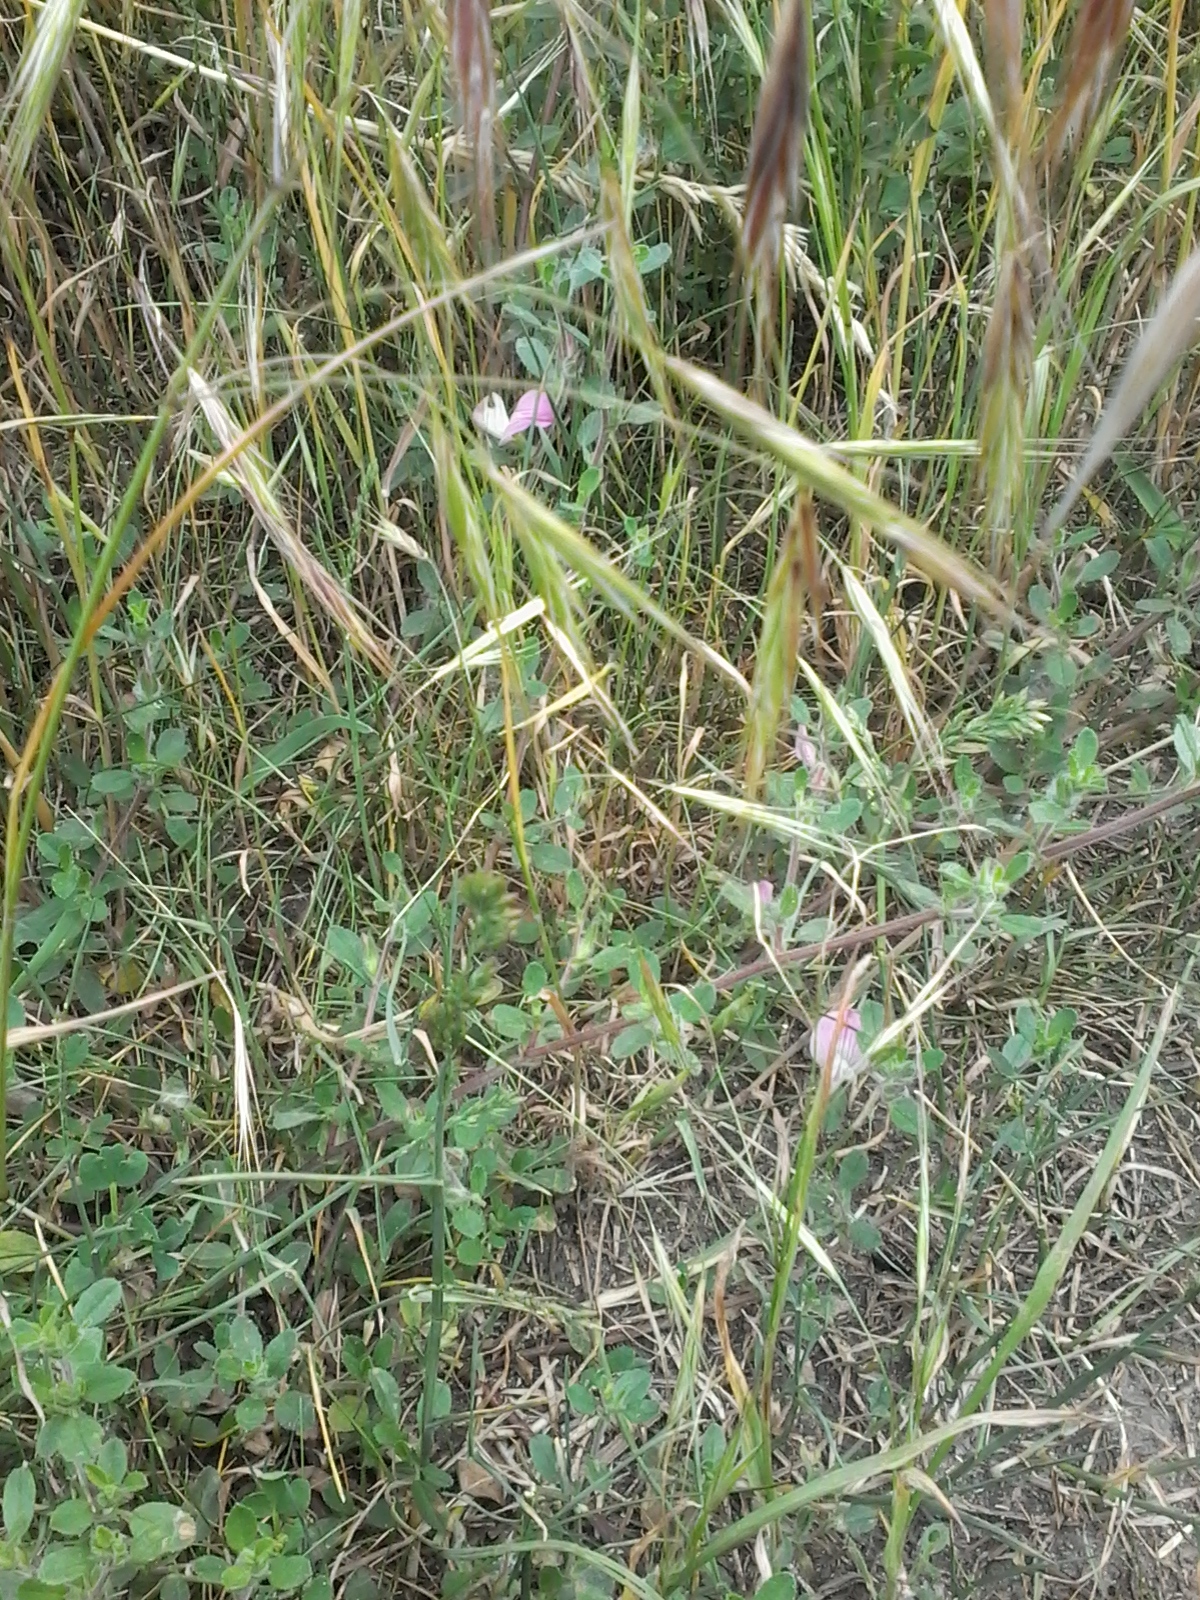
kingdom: Plantae
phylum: Tracheophyta
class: Magnoliopsida
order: Fabales
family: Fabaceae
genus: Ononis
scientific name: Ononis spinosa
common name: Spiny restharrow
